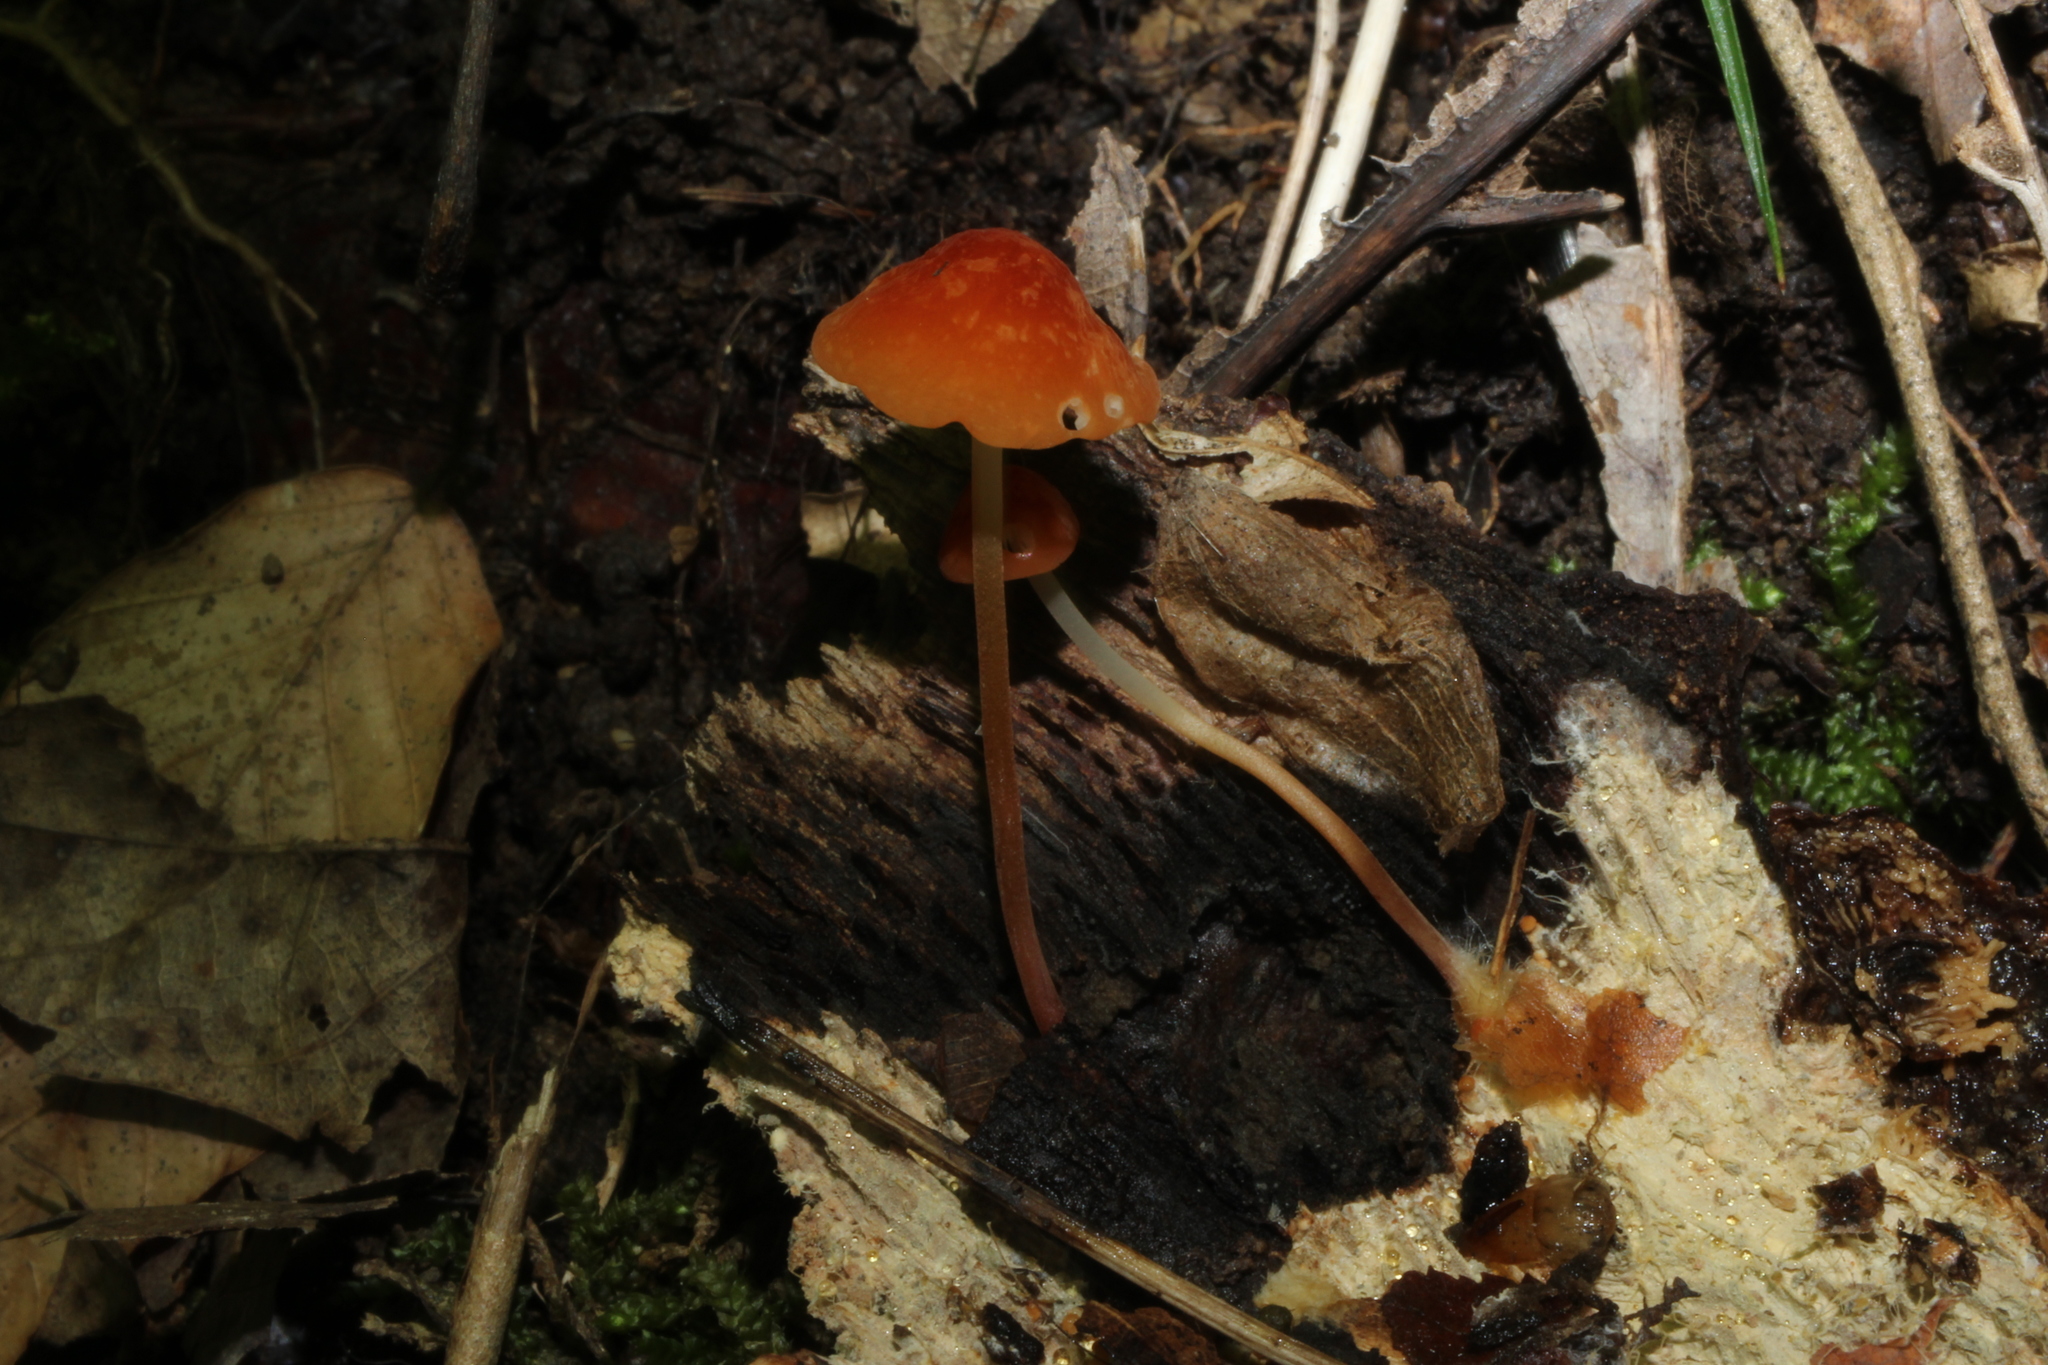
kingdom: Fungi
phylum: Basidiomycota
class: Agaricomycetes
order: Agaricales
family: Marasmiaceae
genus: Marasmius
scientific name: Marasmius sullivantii
